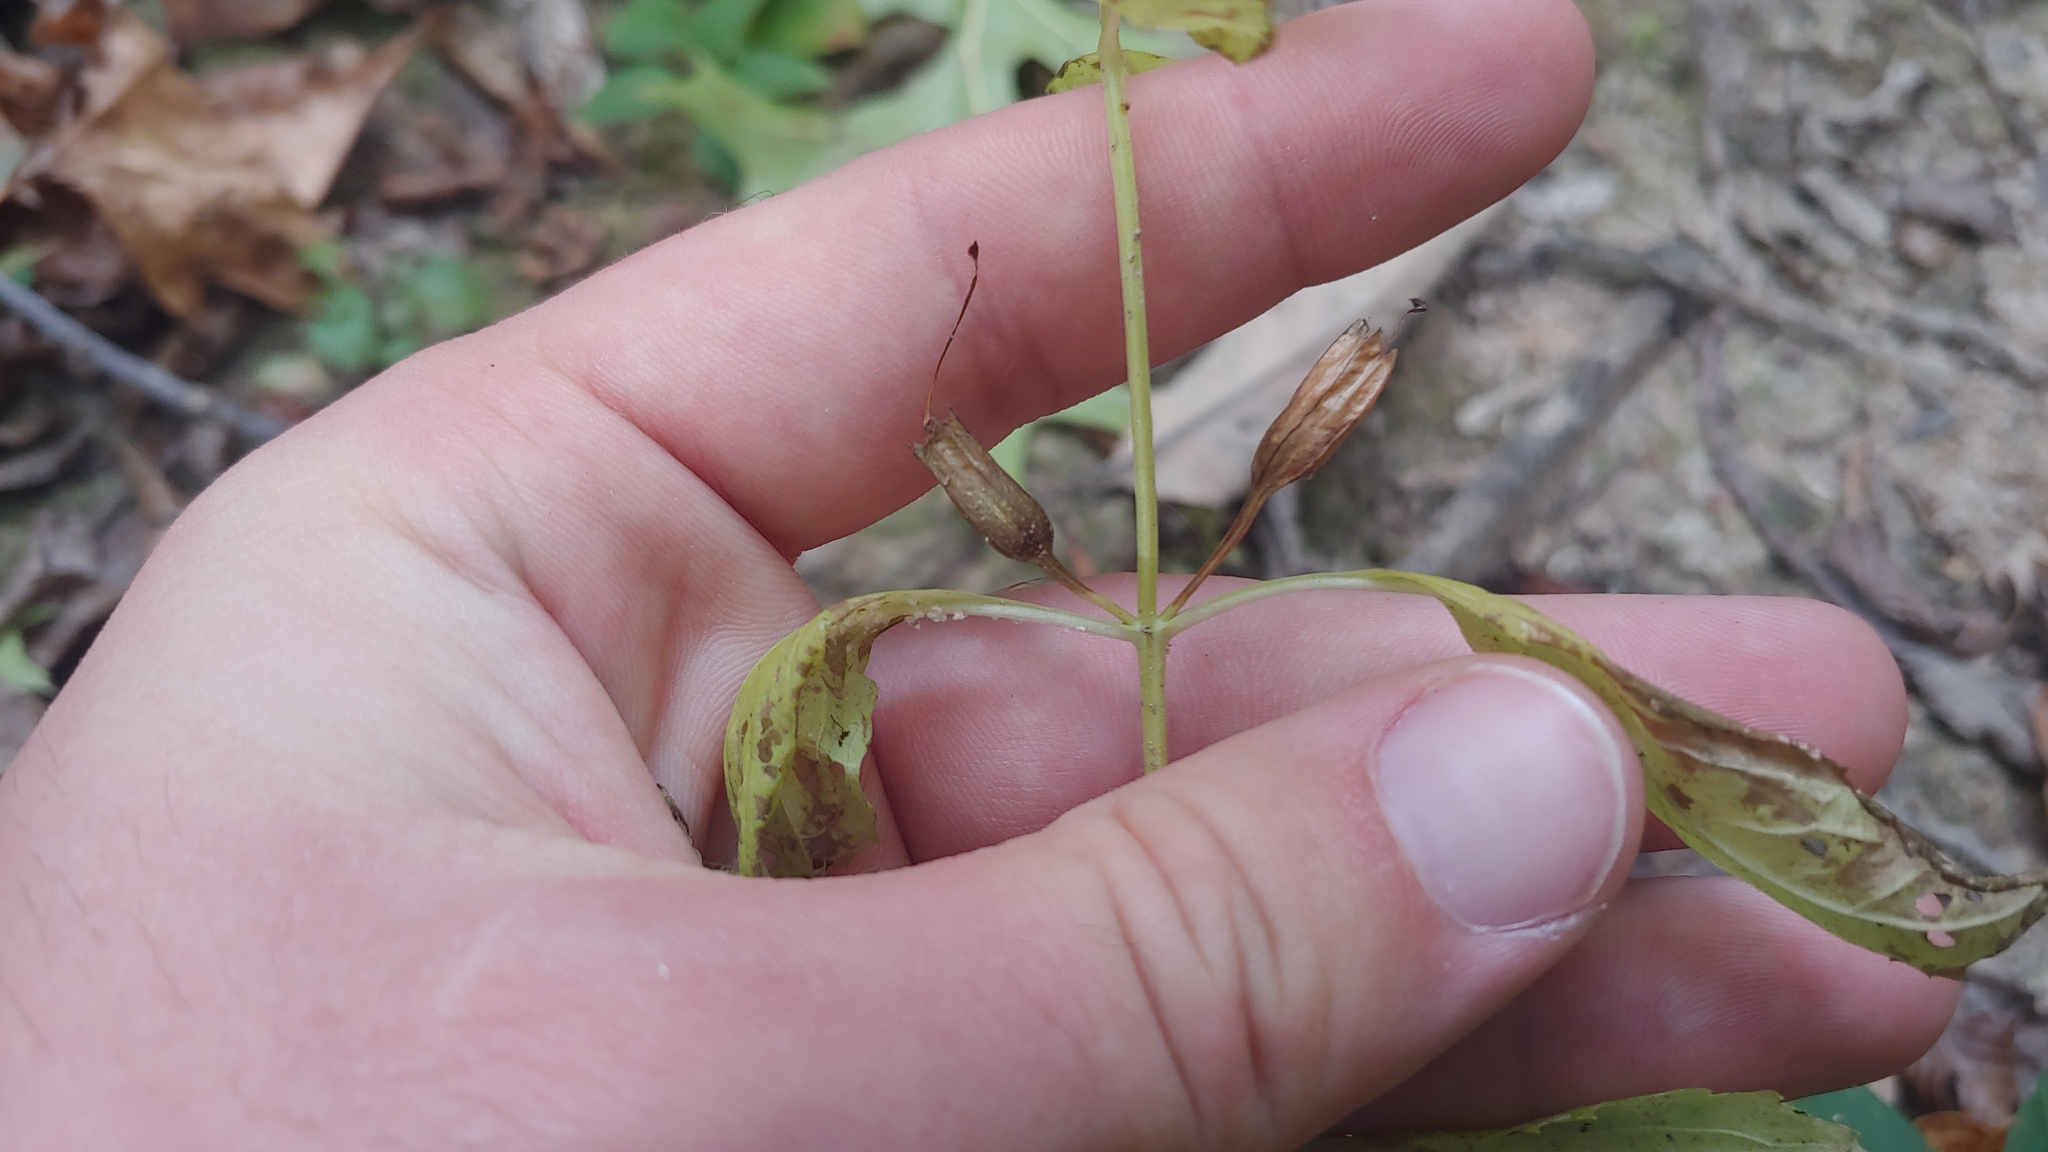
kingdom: Plantae
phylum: Tracheophyta
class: Magnoliopsida
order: Lamiales
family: Phrymaceae
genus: Mimulus
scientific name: Mimulus alatus
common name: Sharp-wing monkey-flower
